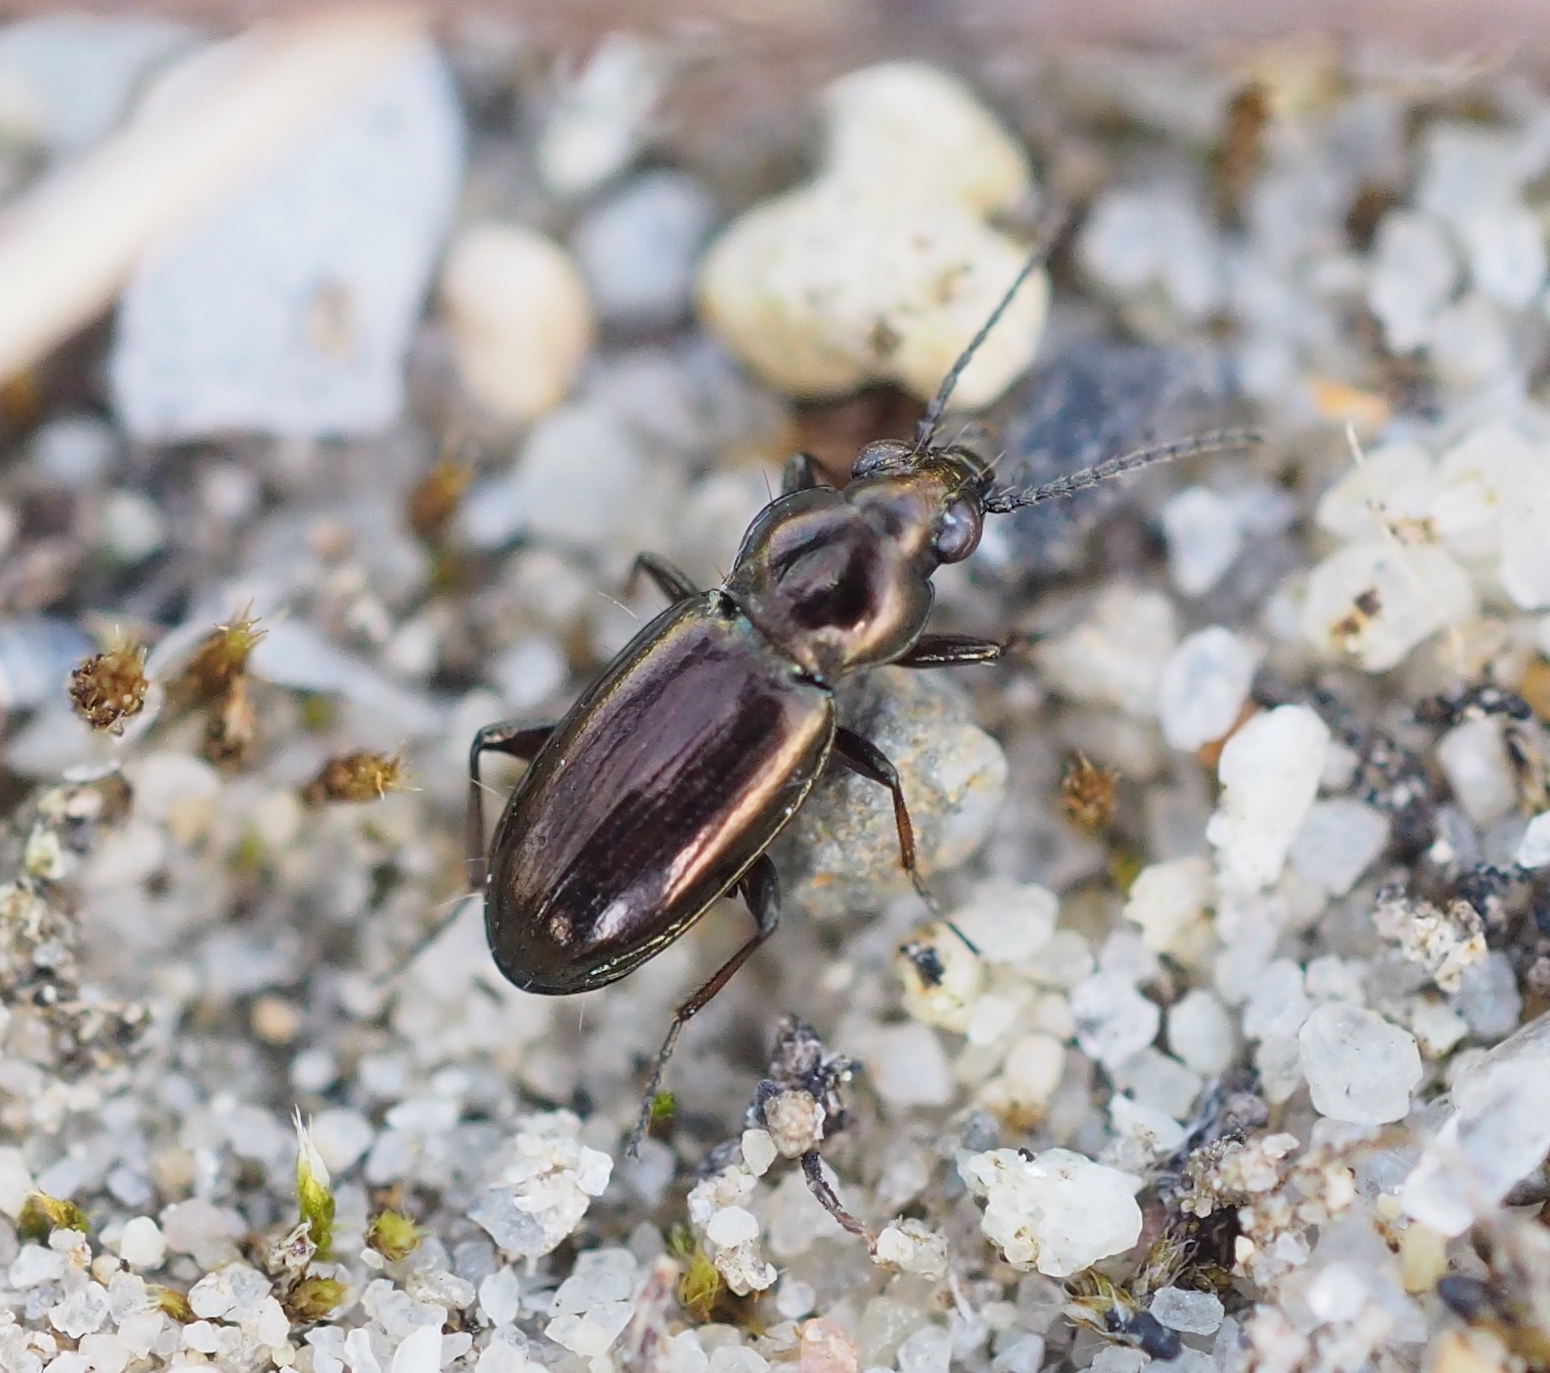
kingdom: Animalia
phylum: Arthropoda
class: Insecta
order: Coleoptera
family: Carabidae
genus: Bembidion
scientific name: Bembidion pygmaeum
